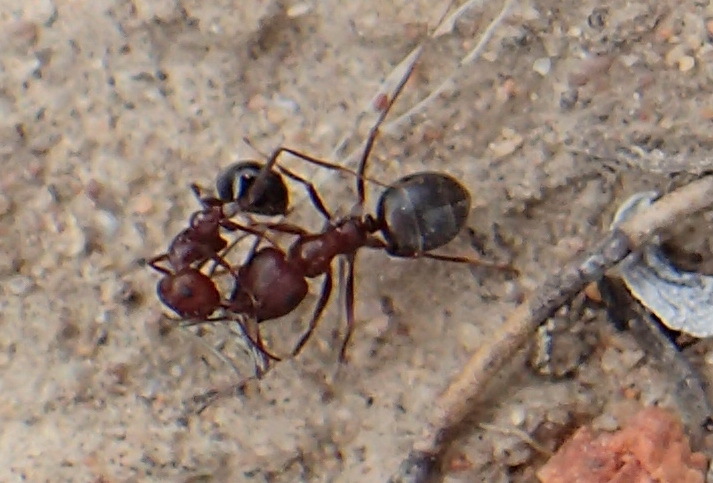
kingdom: Animalia
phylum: Arthropoda
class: Insecta
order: Hymenoptera
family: Formicidae
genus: Anoplolepis
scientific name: Anoplolepis steingroeveri
